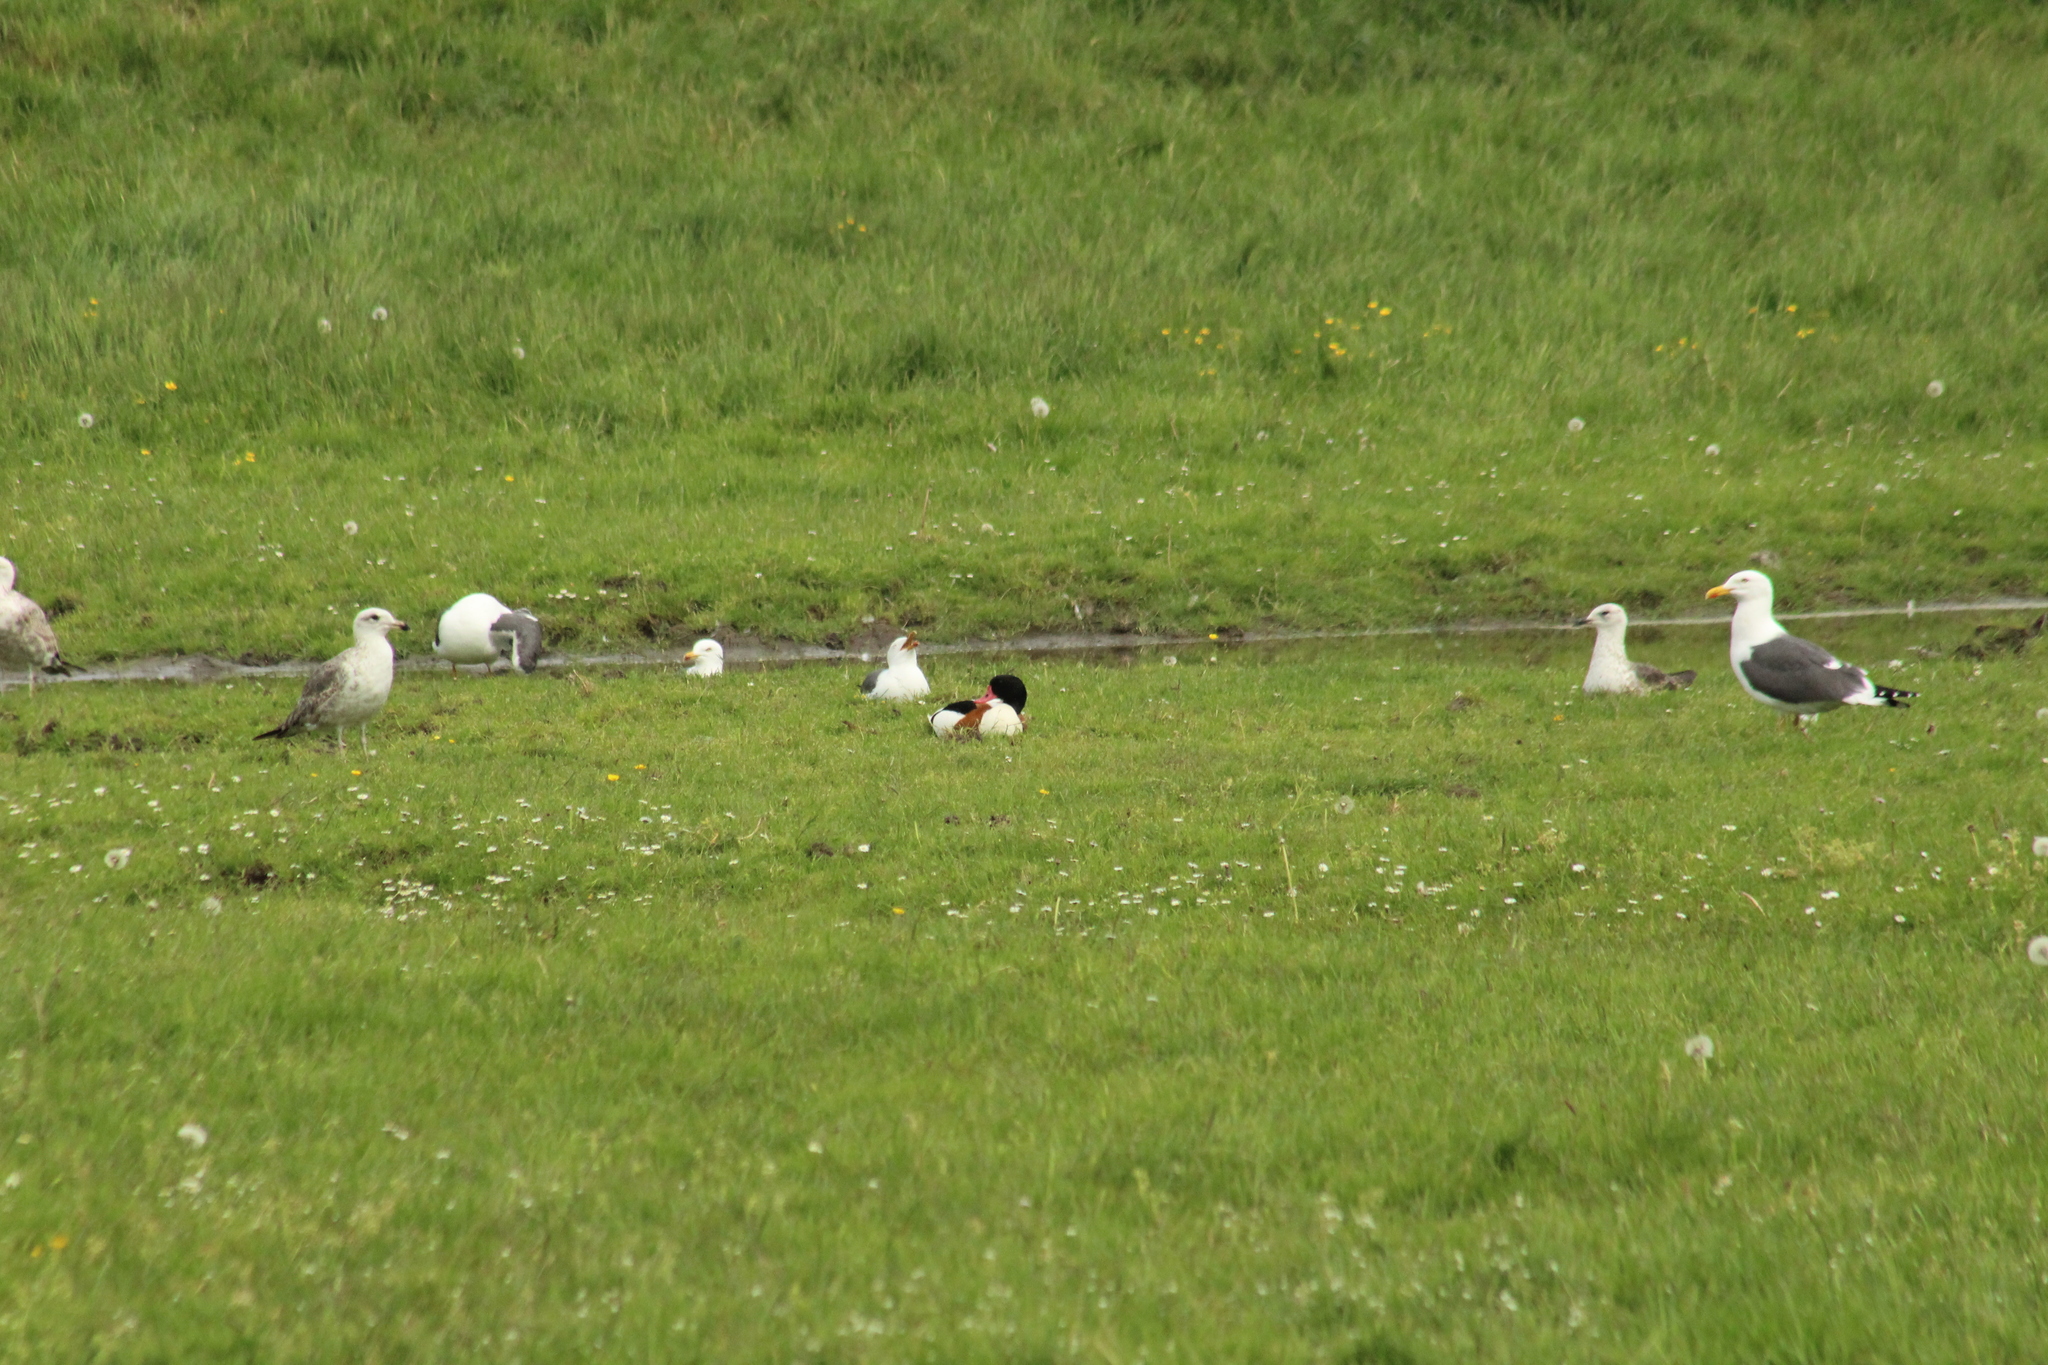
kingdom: Animalia
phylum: Chordata
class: Aves
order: Anseriformes
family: Anatidae
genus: Tadorna
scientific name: Tadorna tadorna
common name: Common shelduck
